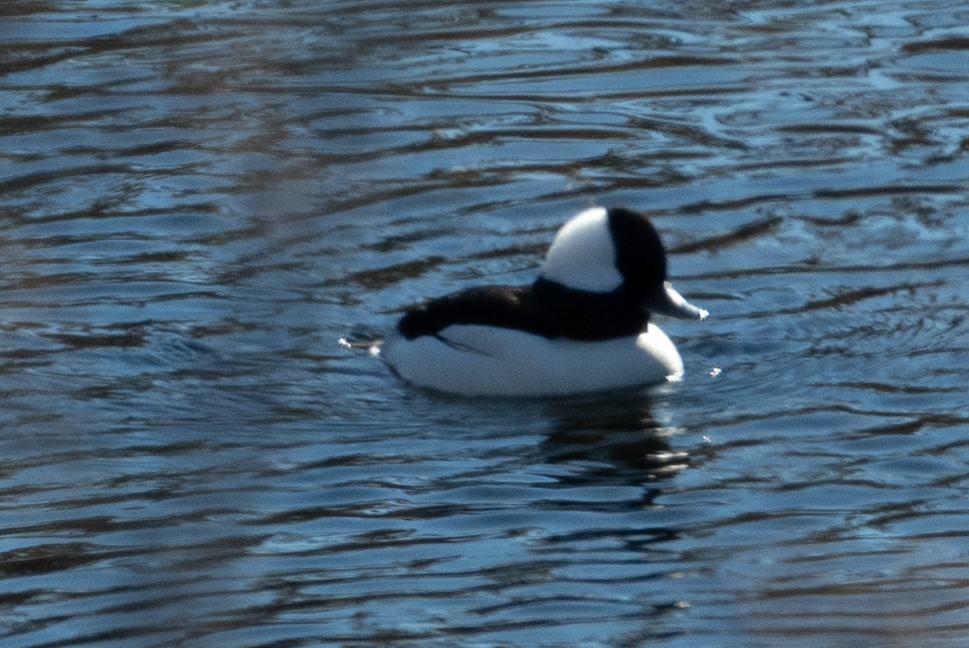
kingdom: Animalia
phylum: Chordata
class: Aves
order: Anseriformes
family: Anatidae
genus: Bucephala
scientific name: Bucephala albeola
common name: Bufflehead
